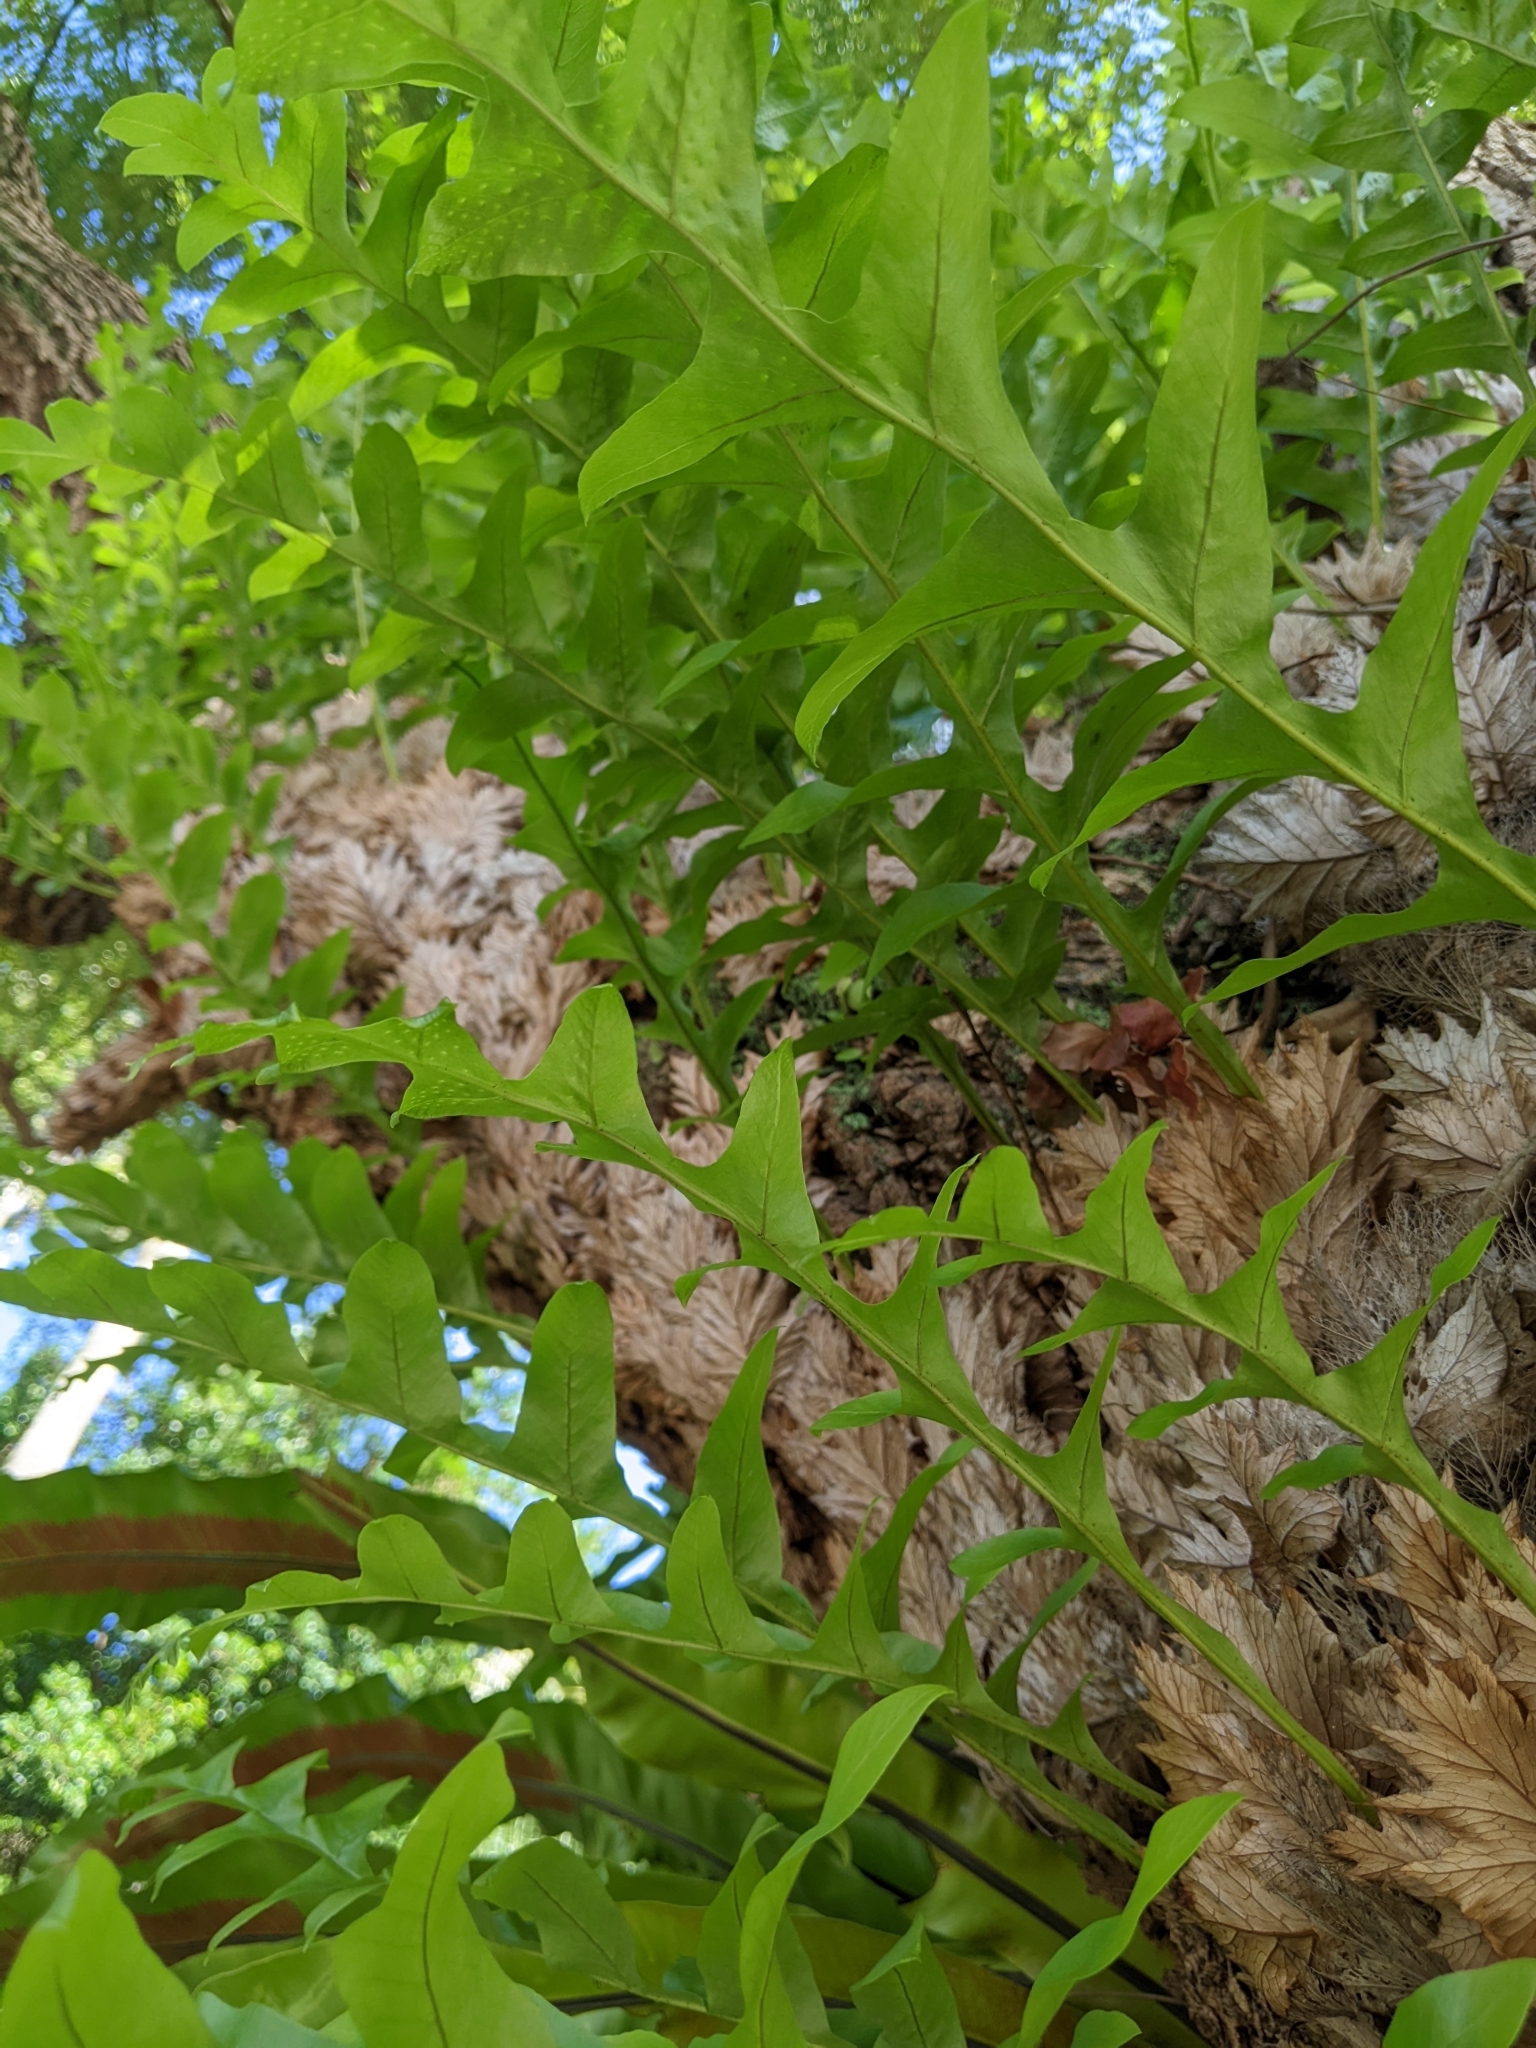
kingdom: Plantae
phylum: Tracheophyta
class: Polypodiopsida
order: Polypodiales
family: Polypodiaceae
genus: Drynaria
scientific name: Drynaria roosii
